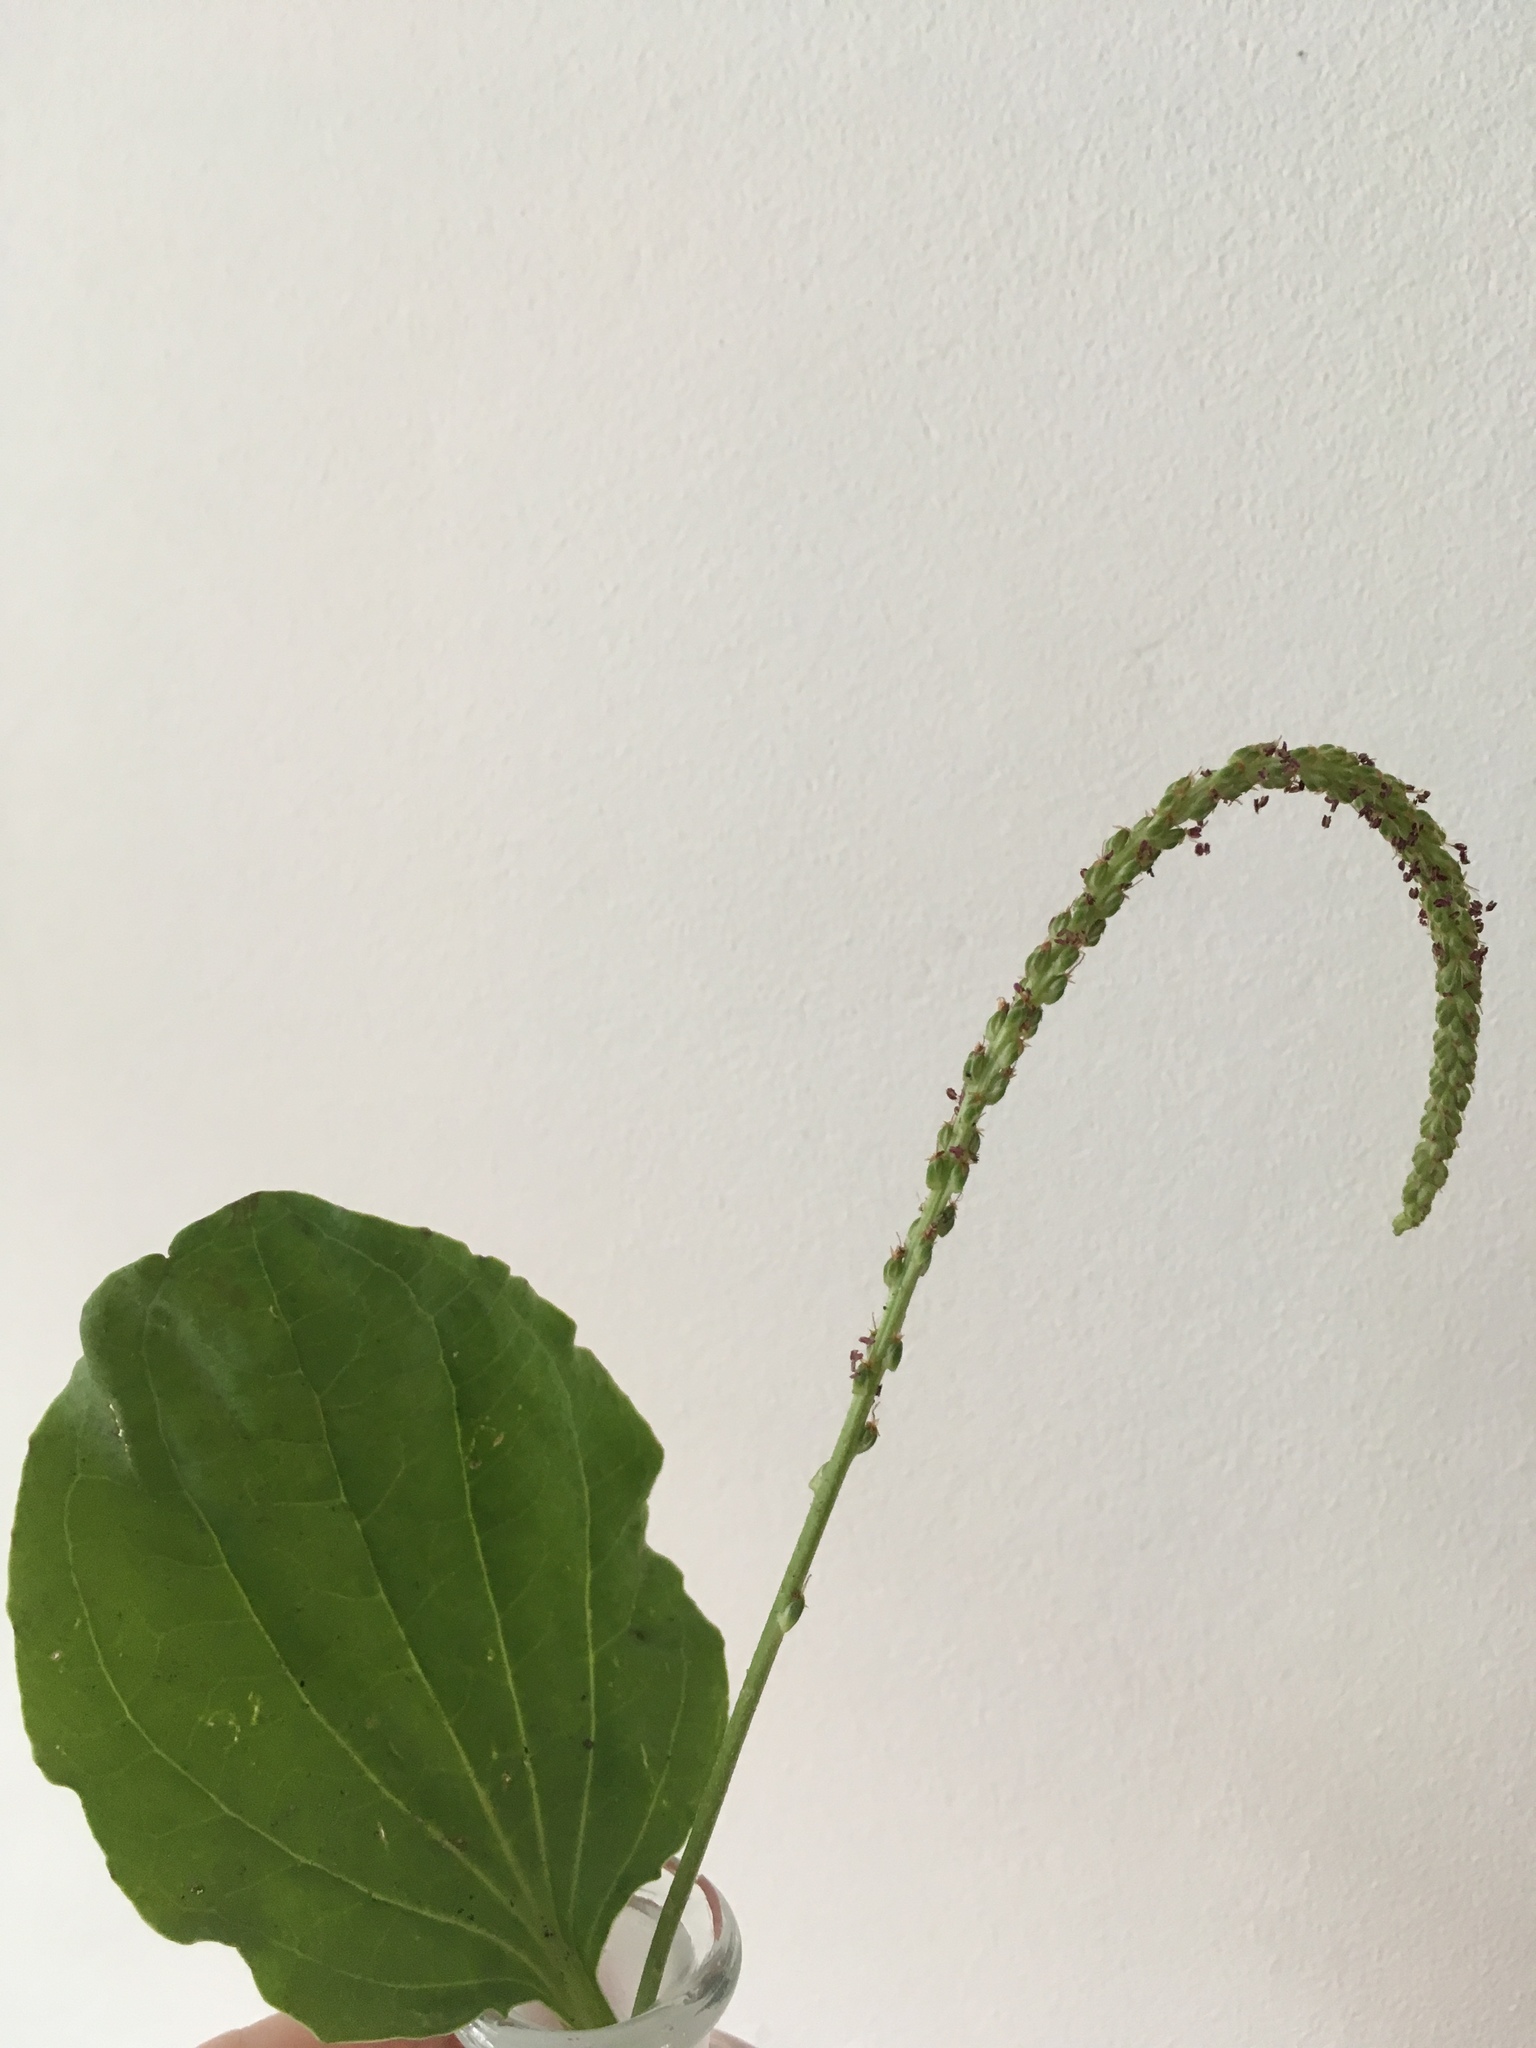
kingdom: Plantae
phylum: Tracheophyta
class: Magnoliopsida
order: Lamiales
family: Plantaginaceae
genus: Plantago
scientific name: Plantago major
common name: Common plantain
